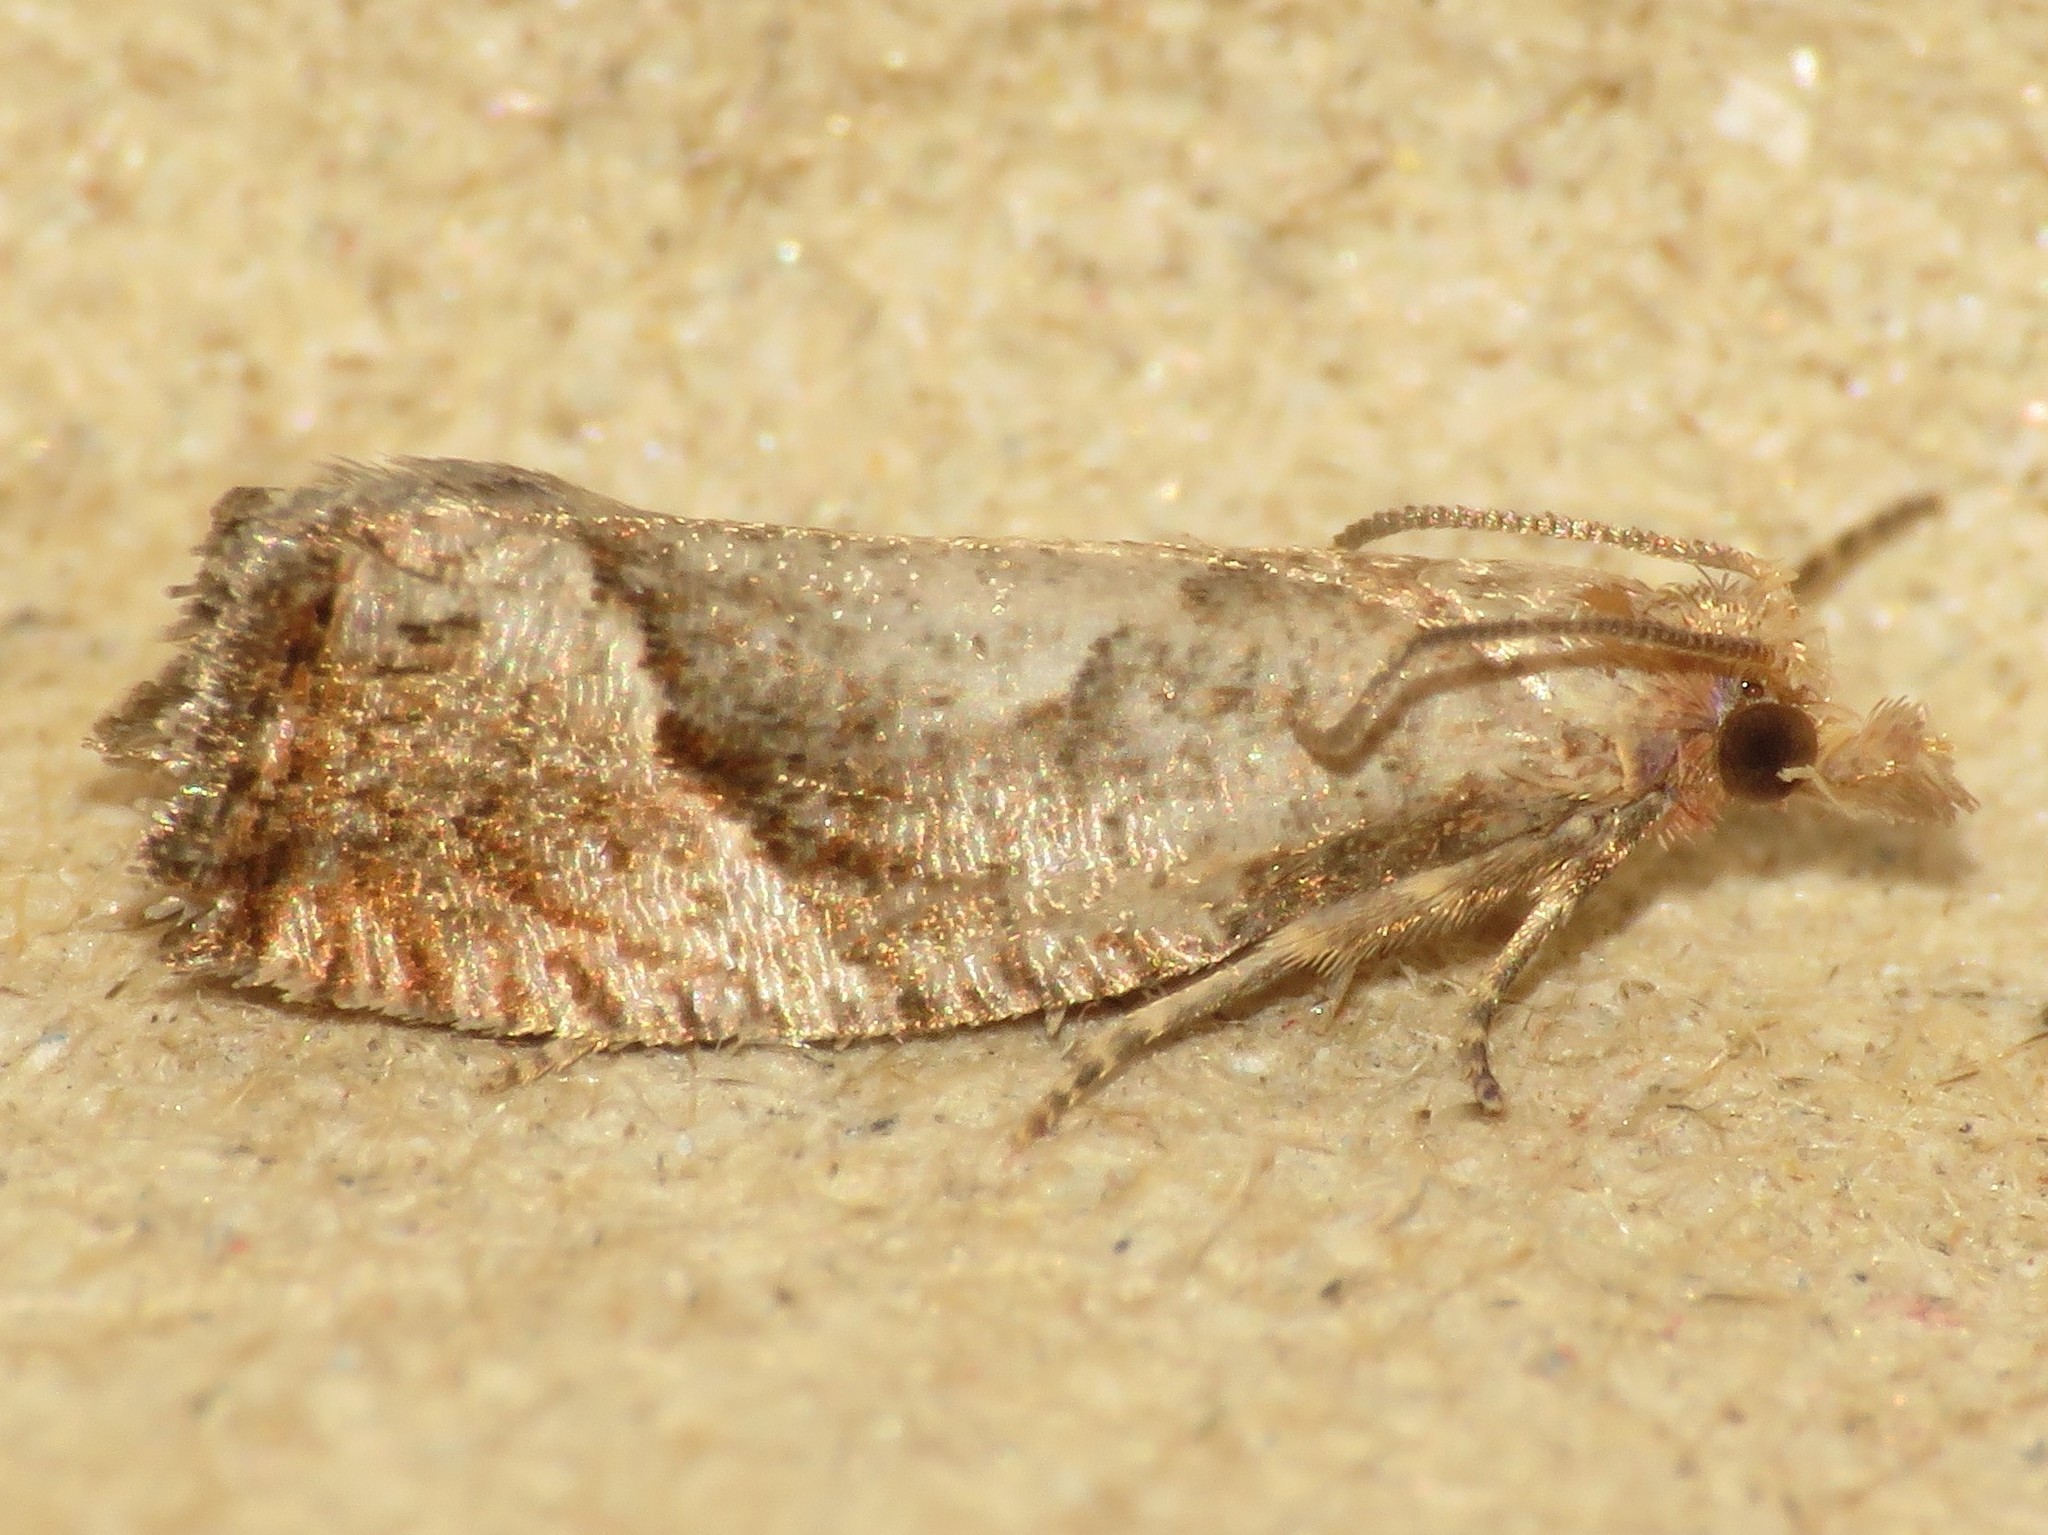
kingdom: Animalia
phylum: Arthropoda
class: Insecta
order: Lepidoptera
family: Tortricidae
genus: Pelochrista
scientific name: Pelochrista derelicta
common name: Derelict pelochrista moth
